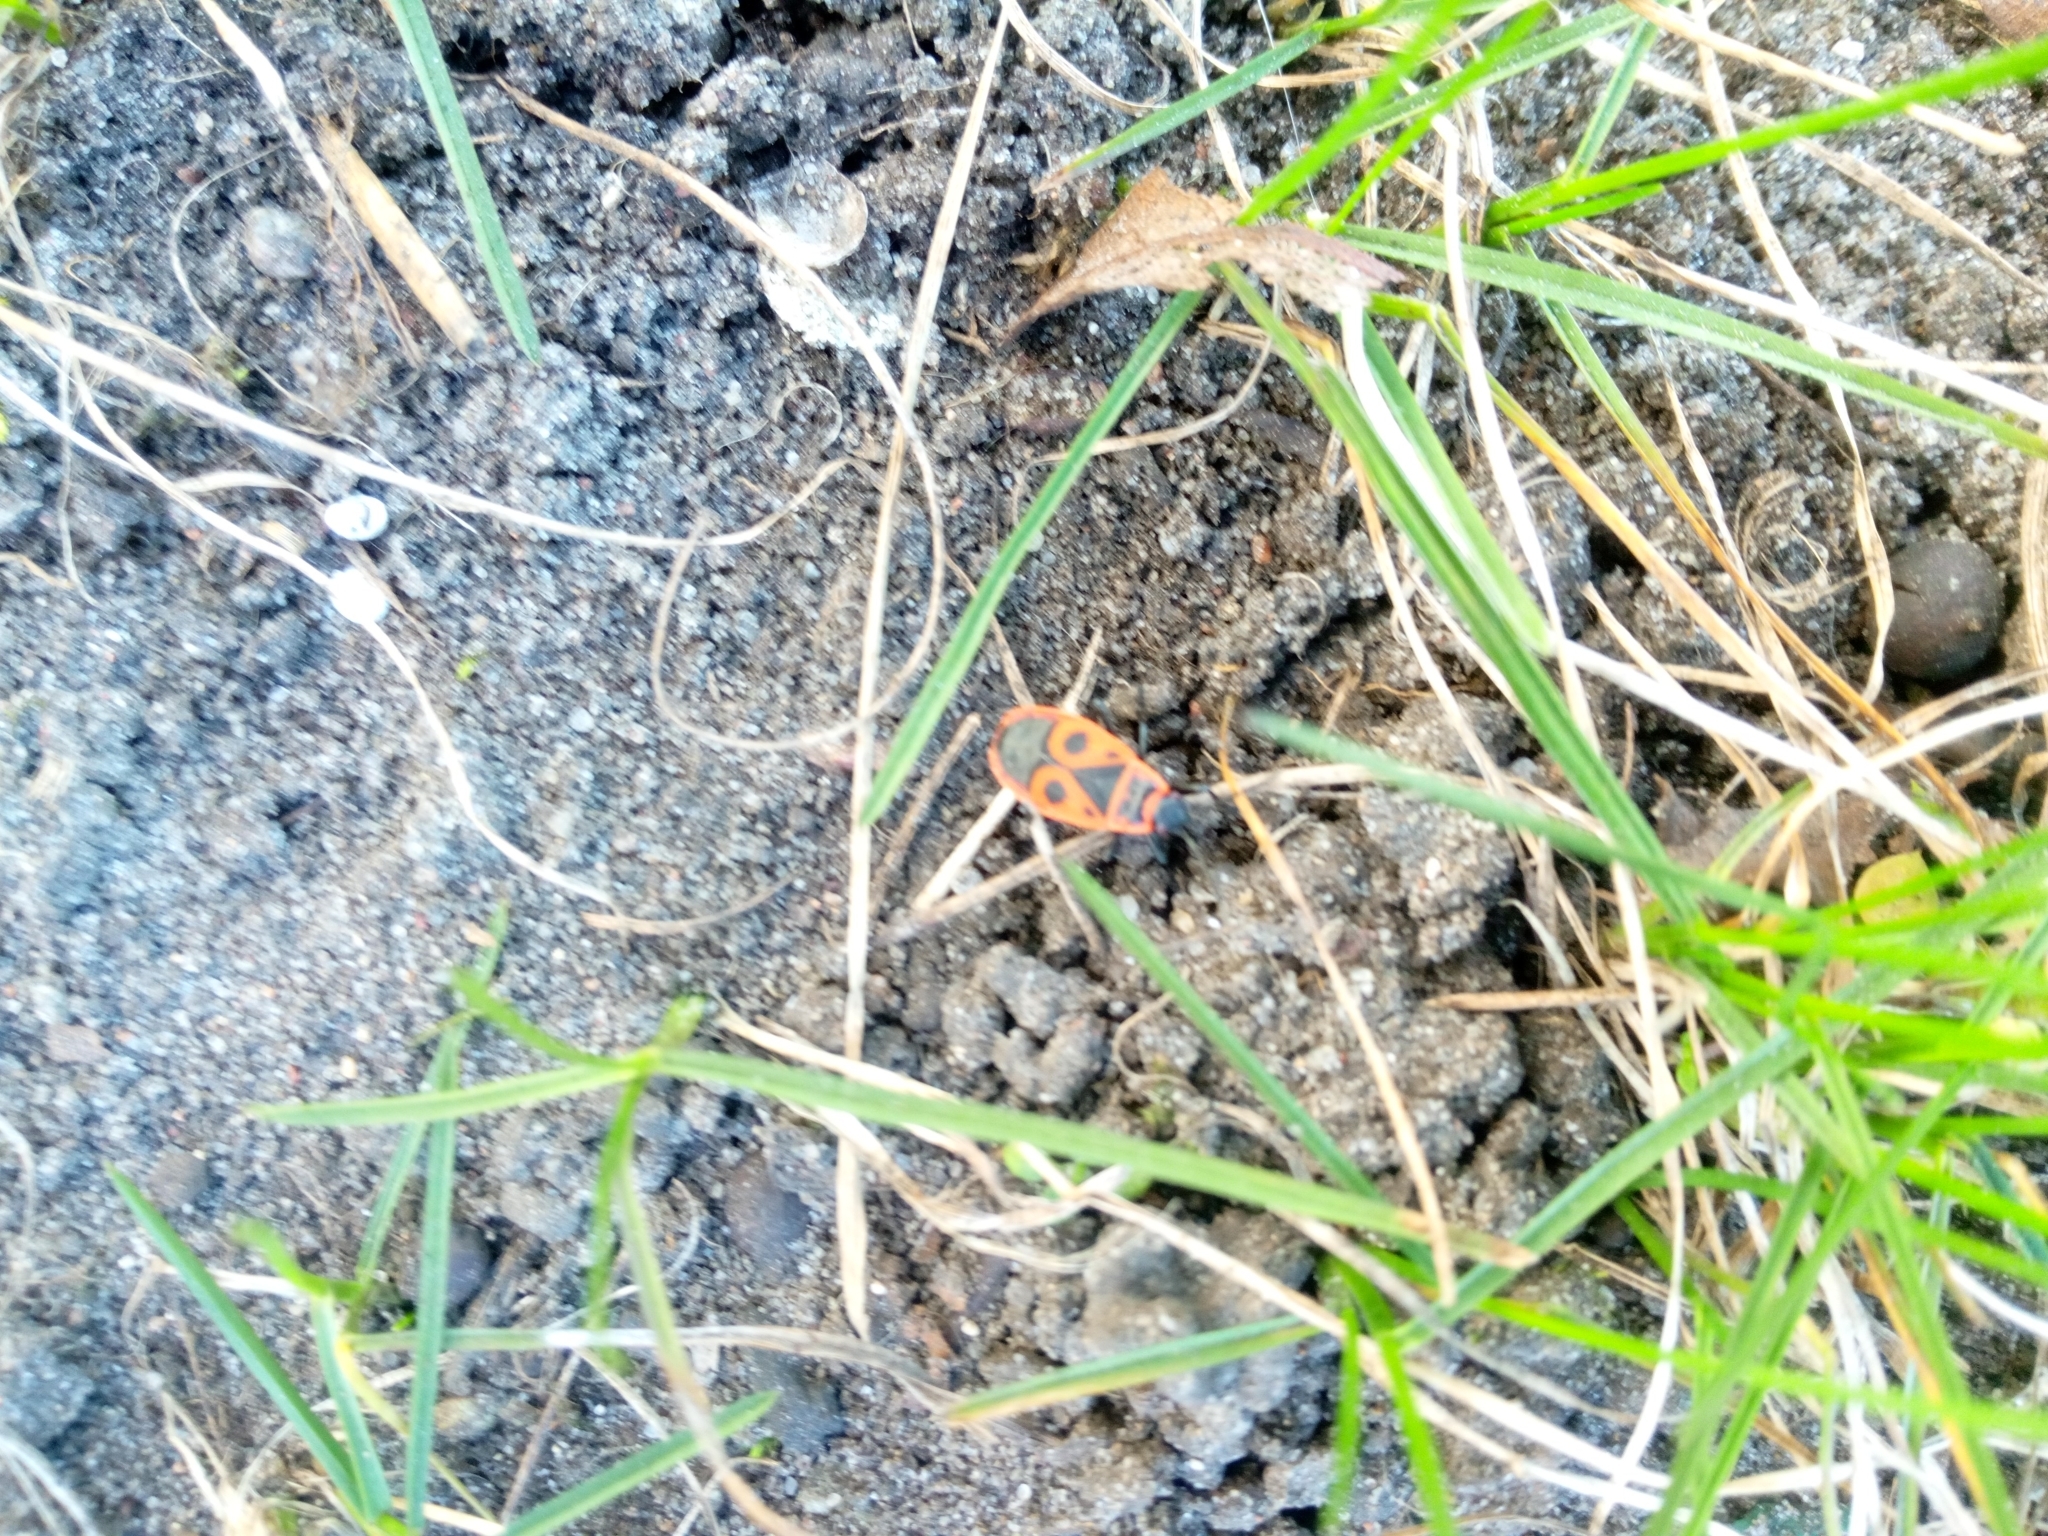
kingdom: Animalia
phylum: Arthropoda
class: Insecta
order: Hemiptera
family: Pyrrhocoridae
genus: Pyrrhocoris
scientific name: Pyrrhocoris apterus
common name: Firebug
